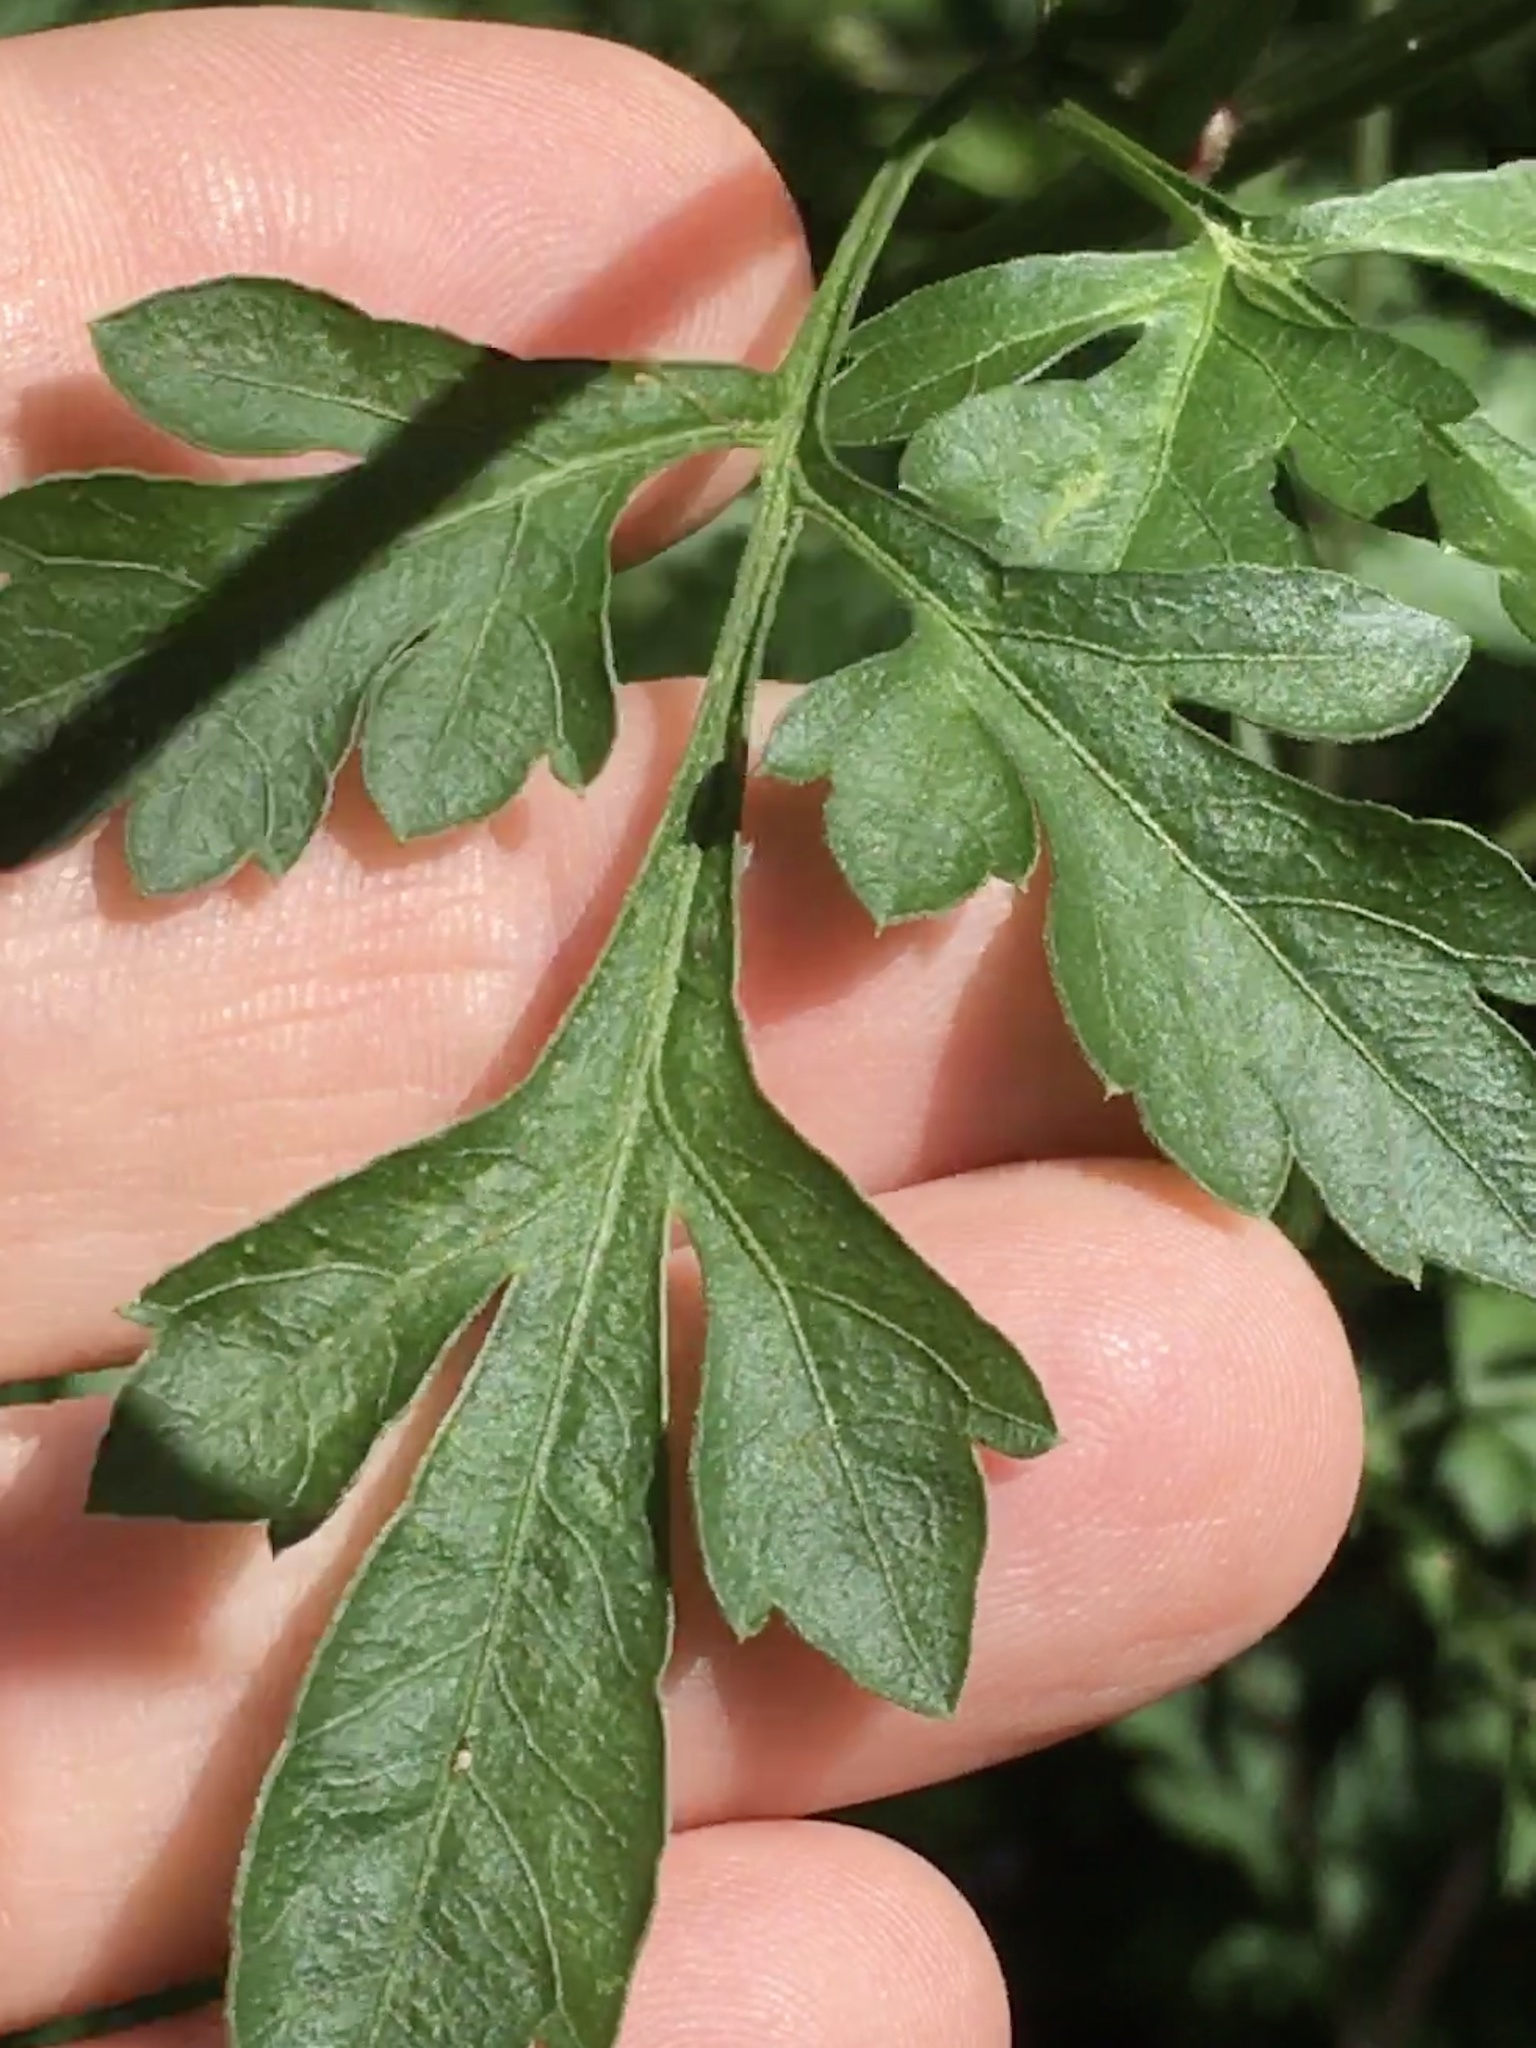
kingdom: Plantae
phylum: Tracheophyta
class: Magnoliopsida
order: Asterales
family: Asteraceae
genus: Bidens
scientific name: Bidens bipinnata
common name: Spanish-needles
